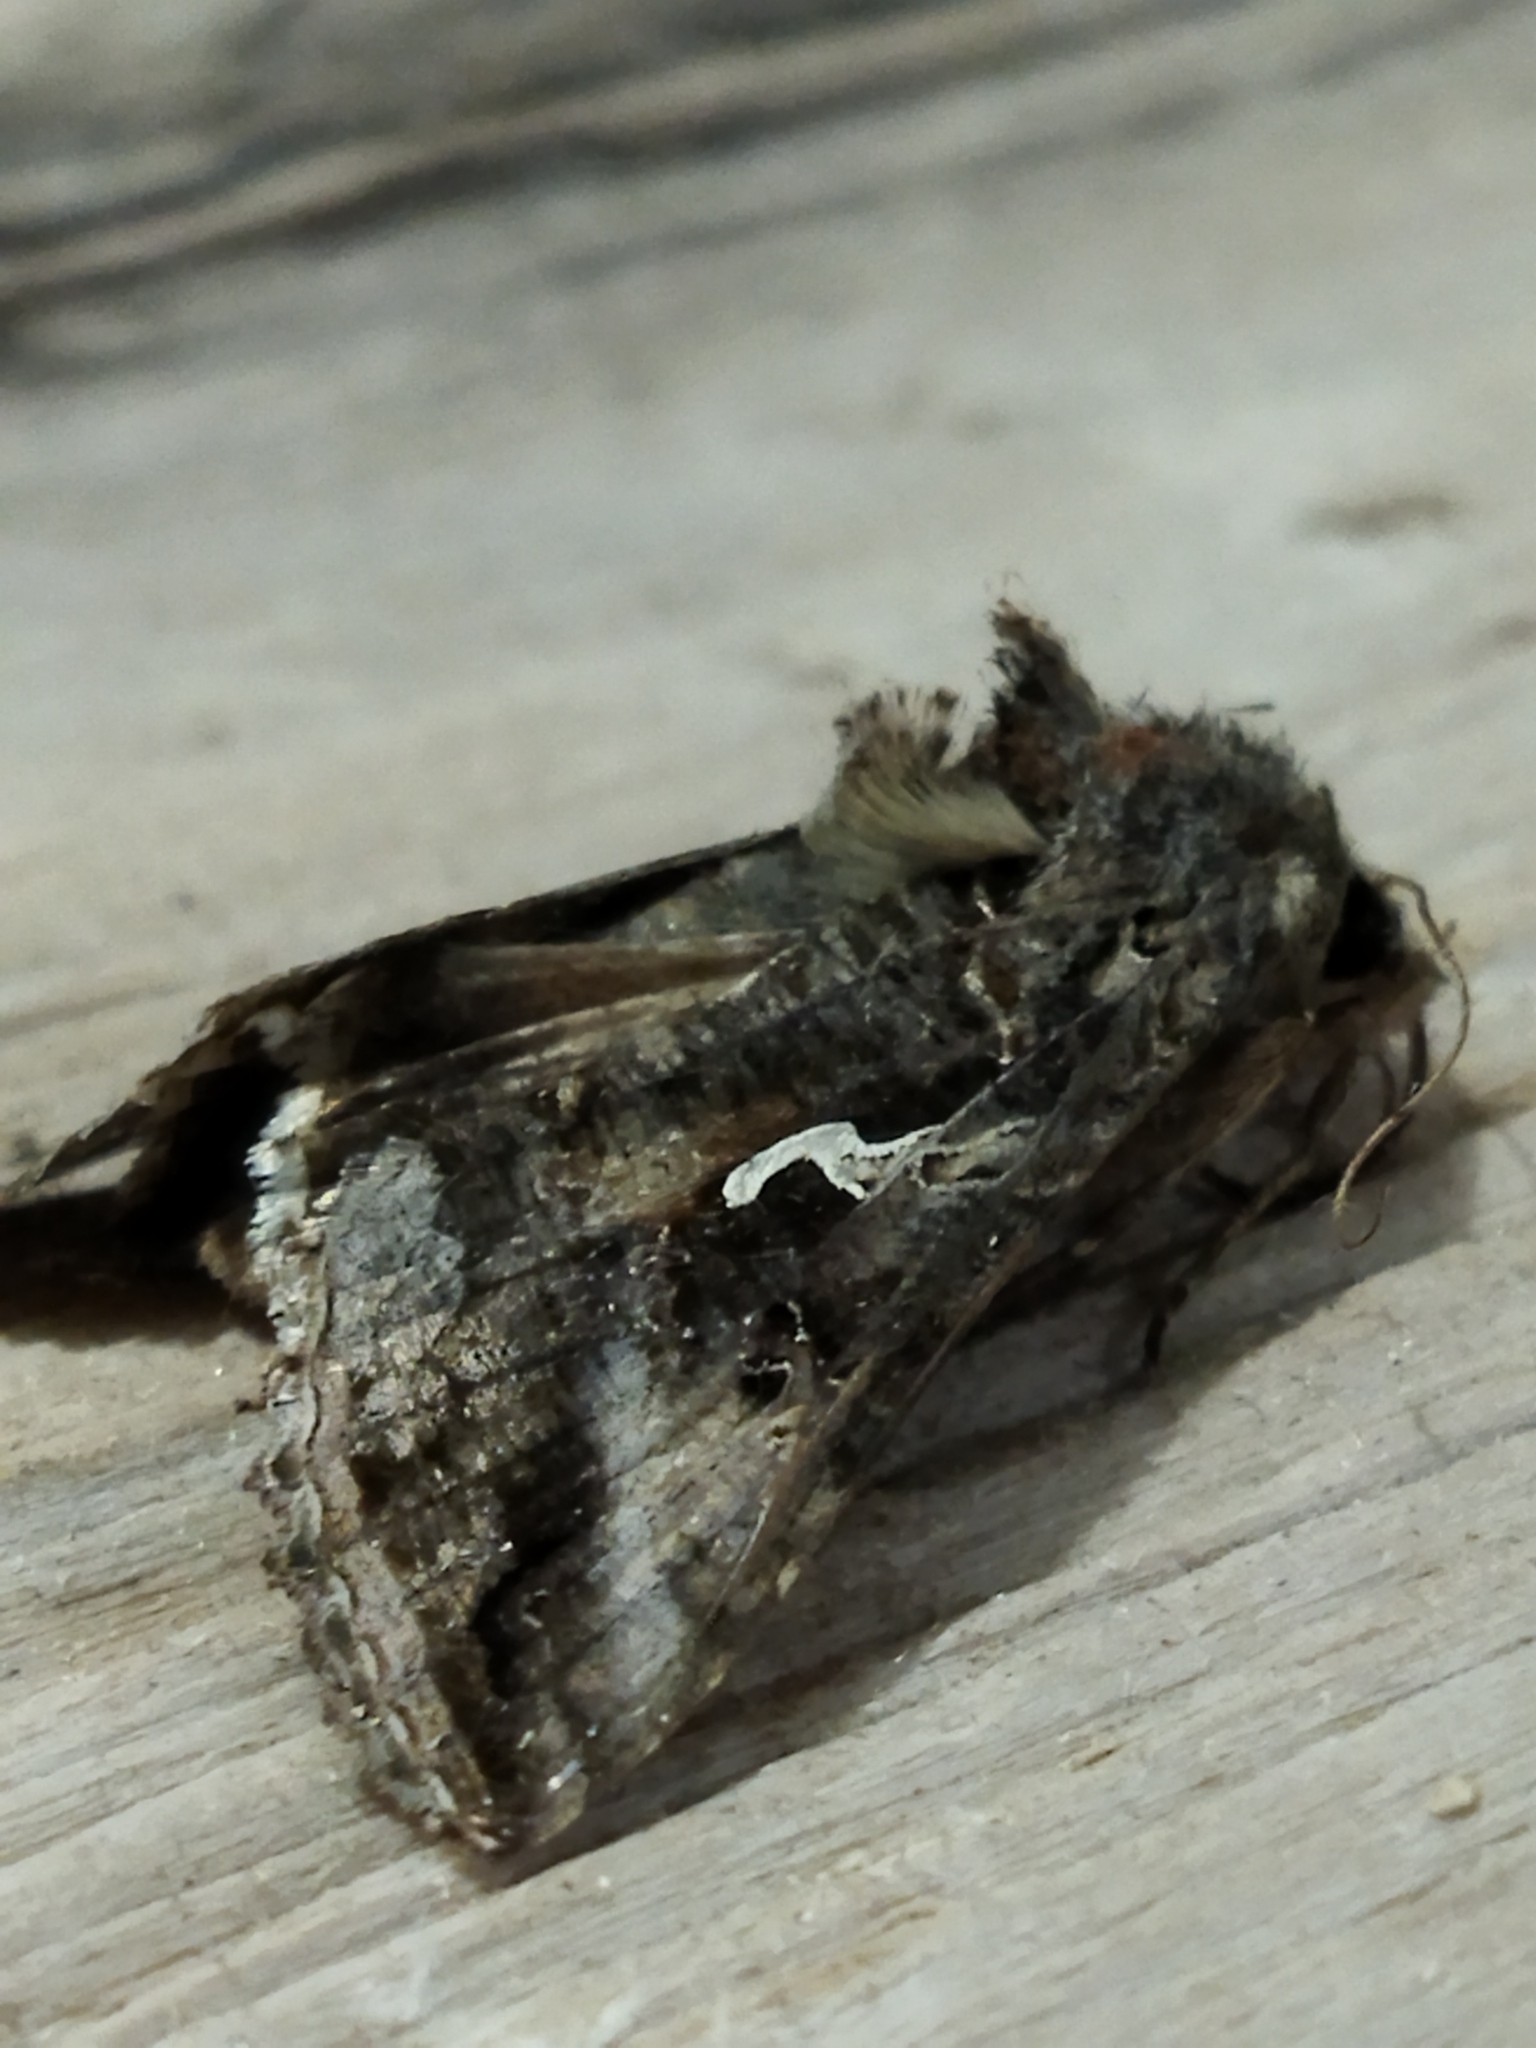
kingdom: Animalia
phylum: Arthropoda
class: Insecta
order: Lepidoptera
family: Noctuidae
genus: Autographa
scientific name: Autographa gamma
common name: Silver y
